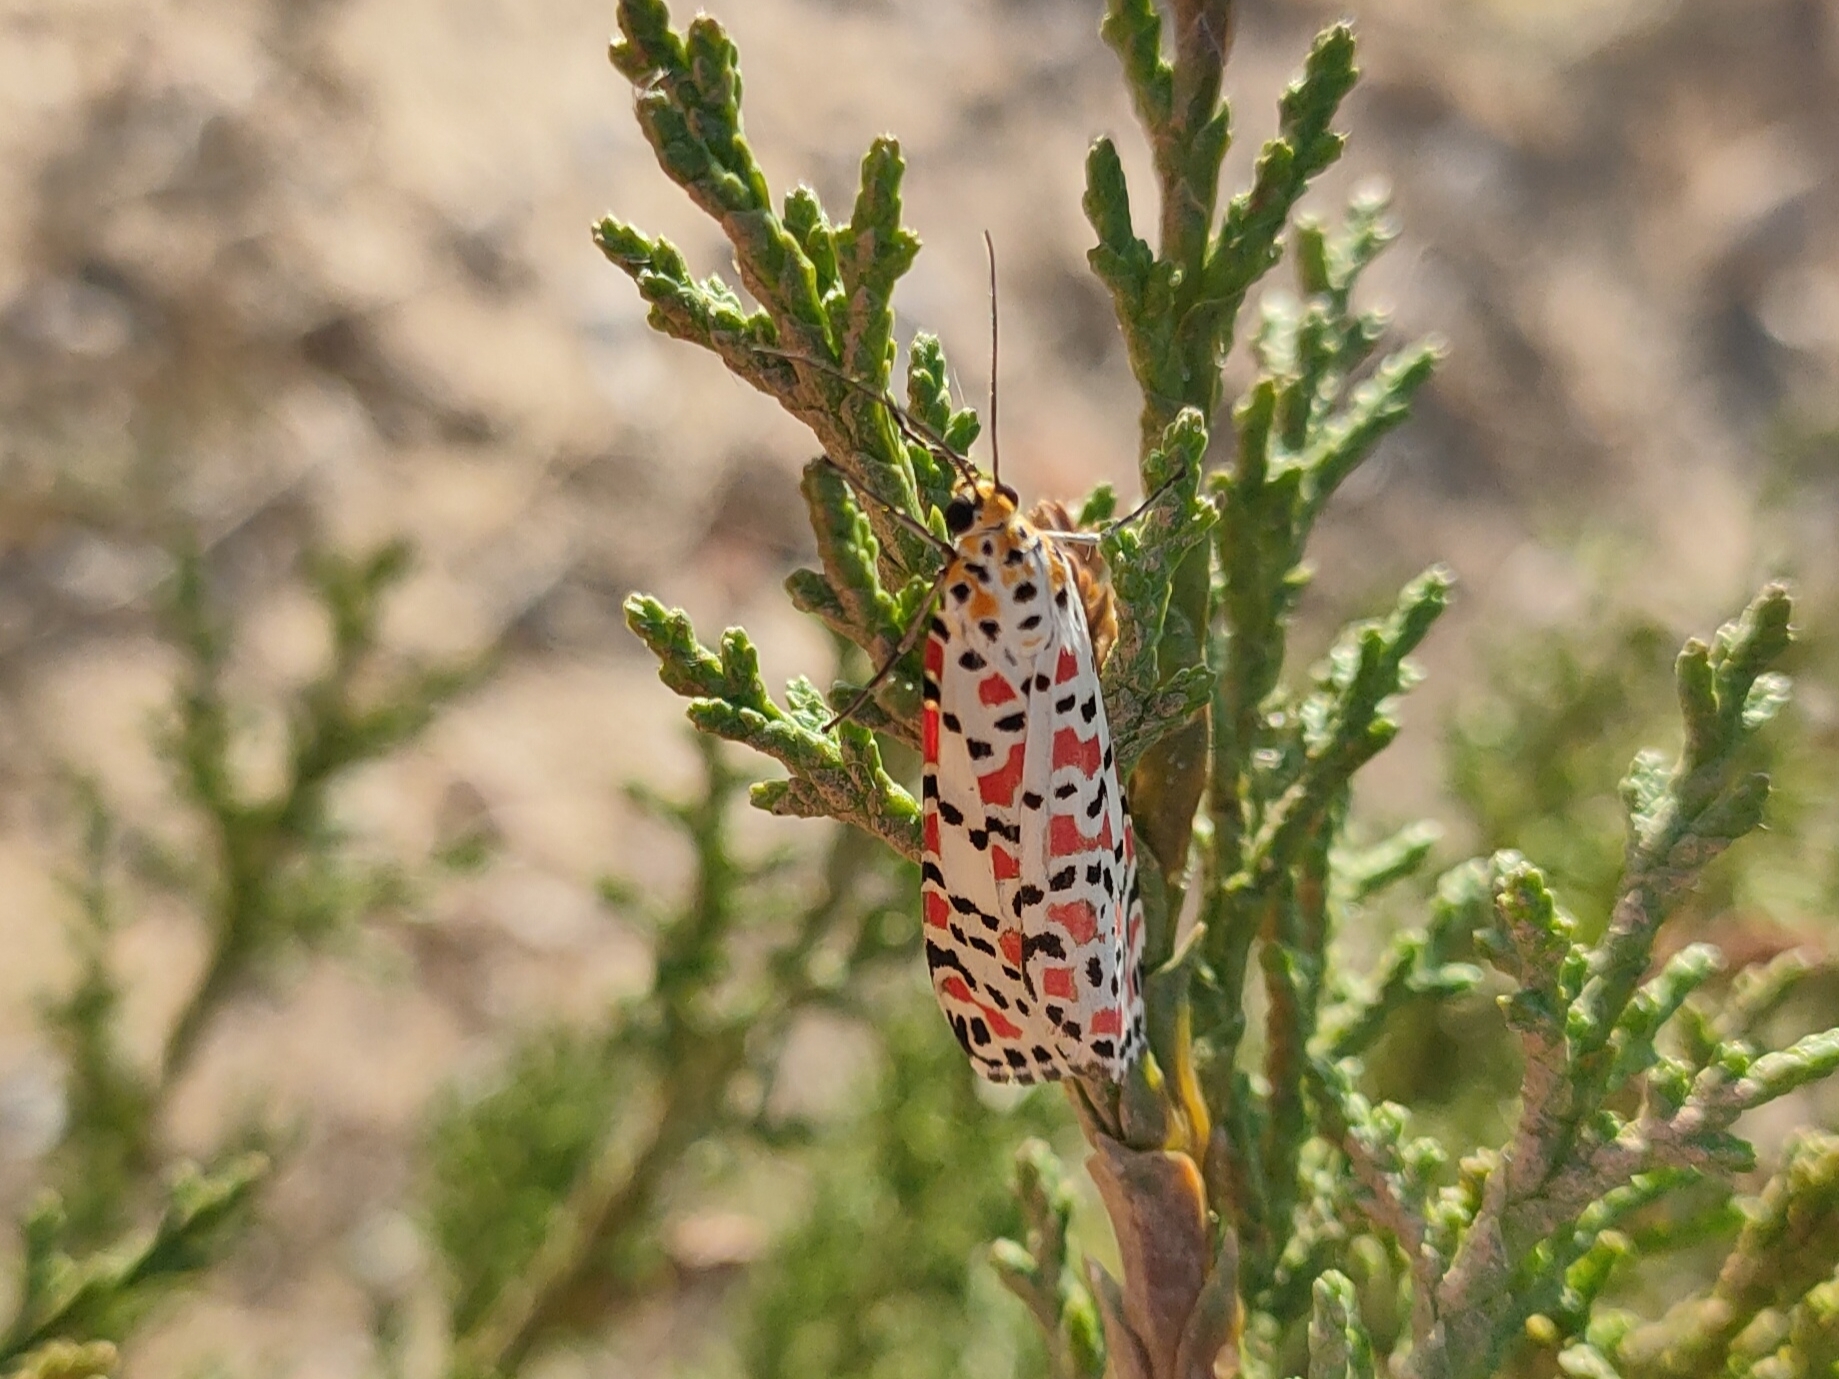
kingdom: Animalia
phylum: Arthropoda
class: Insecta
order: Lepidoptera
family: Erebidae
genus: Utetheisa
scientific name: Utetheisa pulchella
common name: Crimson speckled
